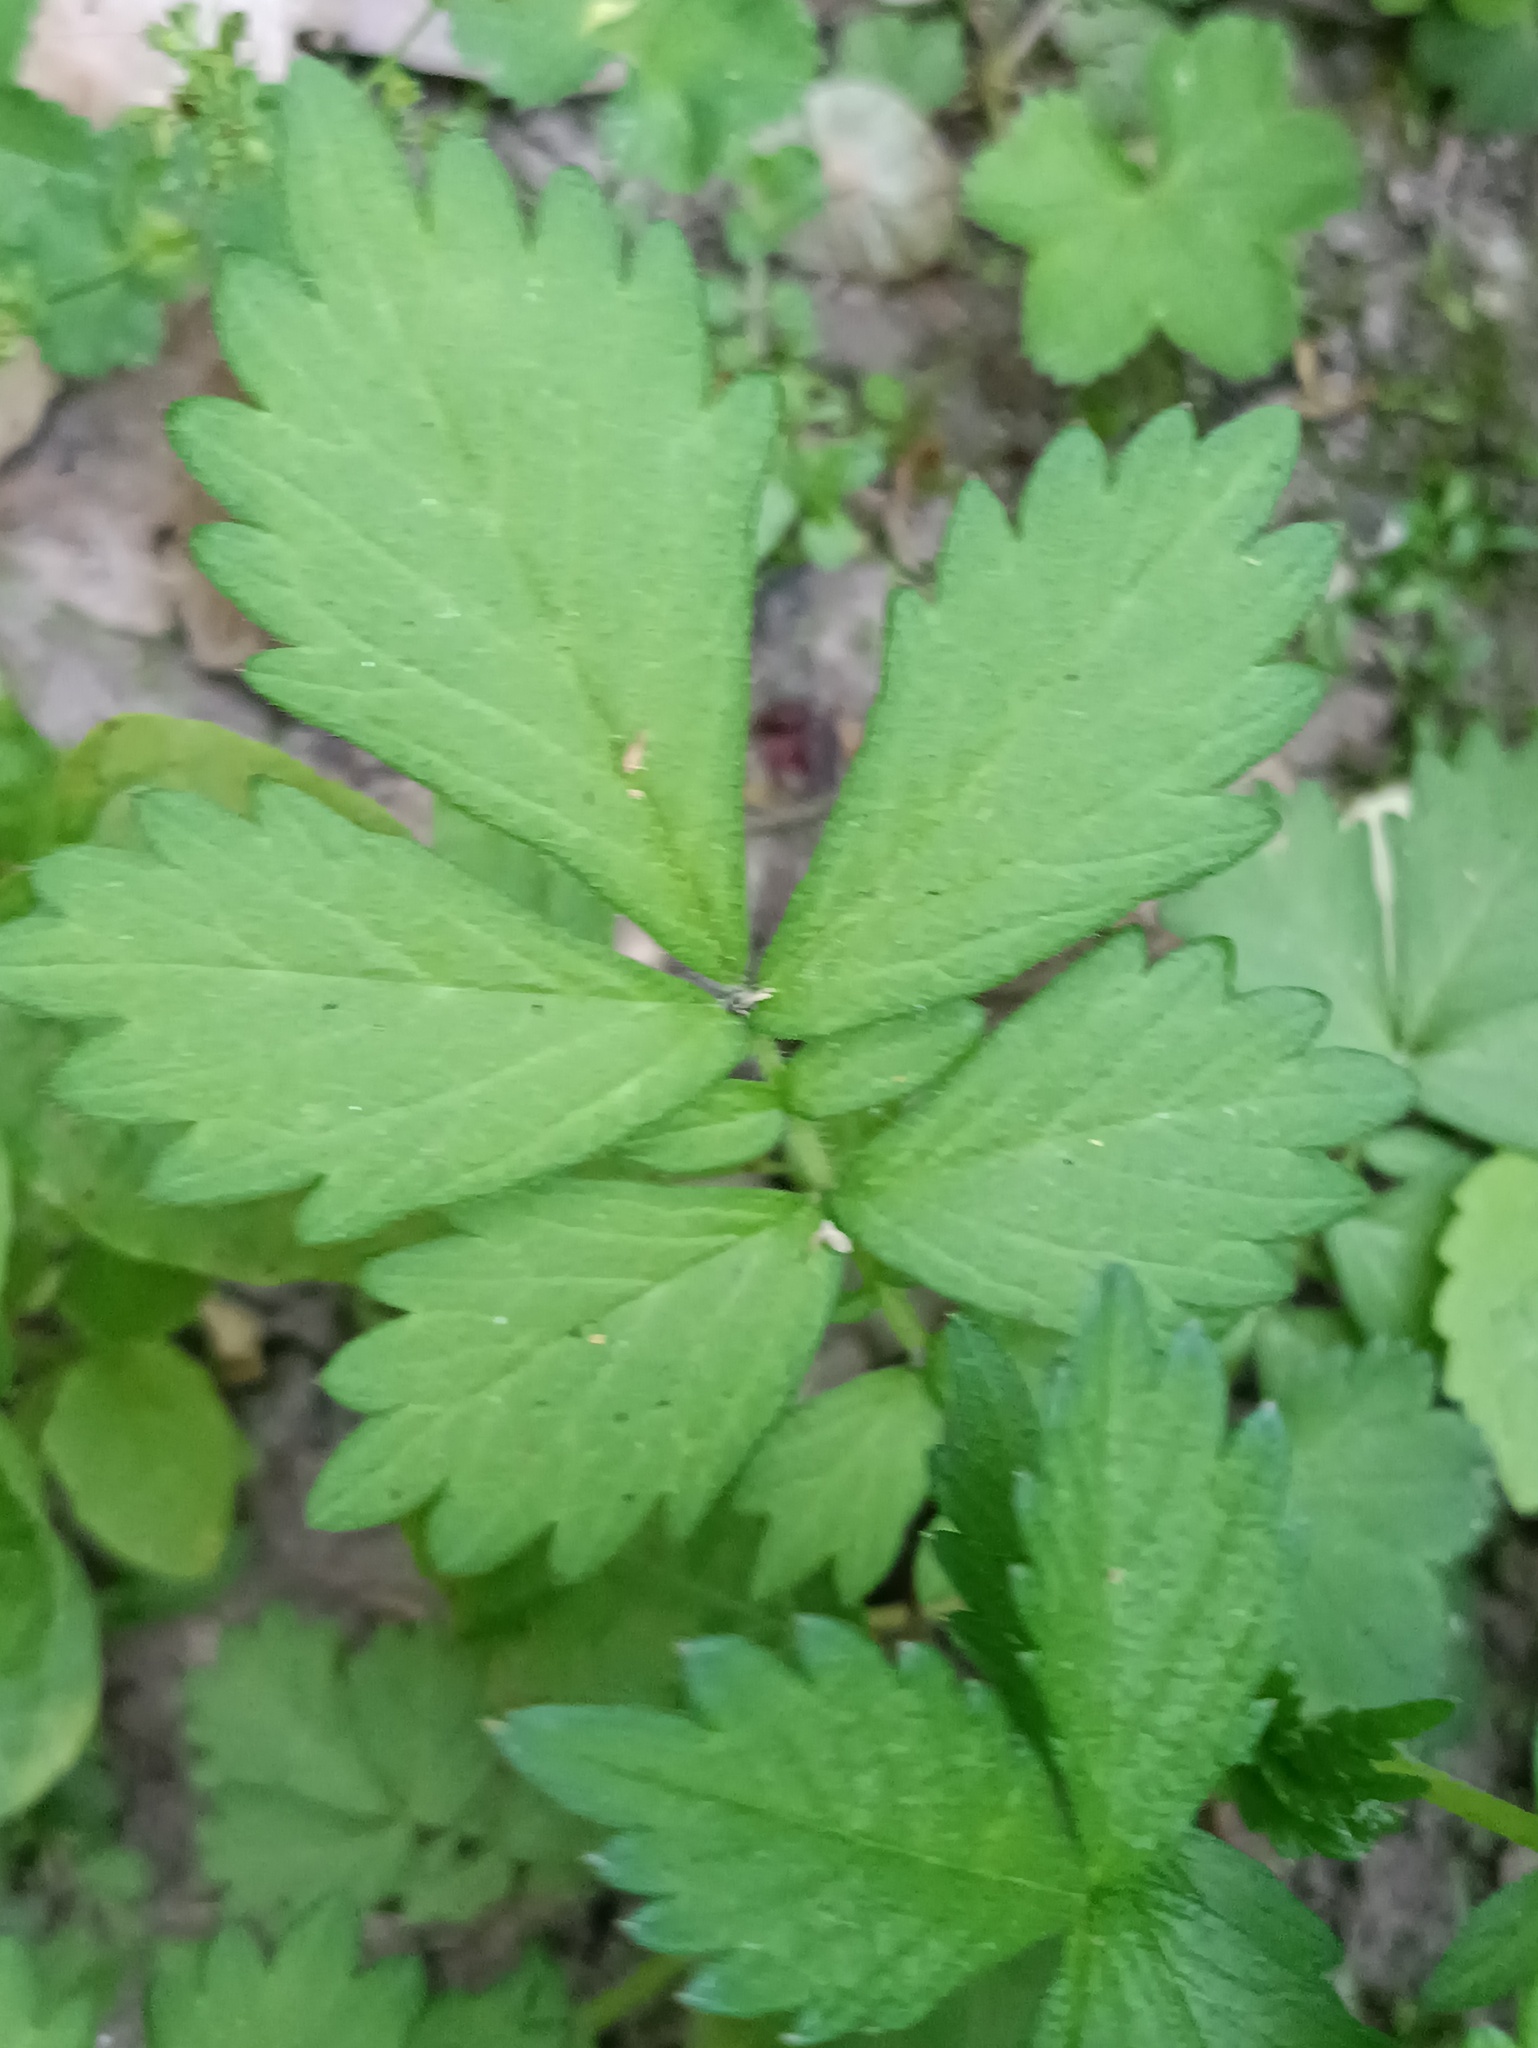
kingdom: Plantae
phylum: Tracheophyta
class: Magnoliopsida
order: Rosales
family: Rosaceae
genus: Agrimonia
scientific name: Agrimonia pilosa
